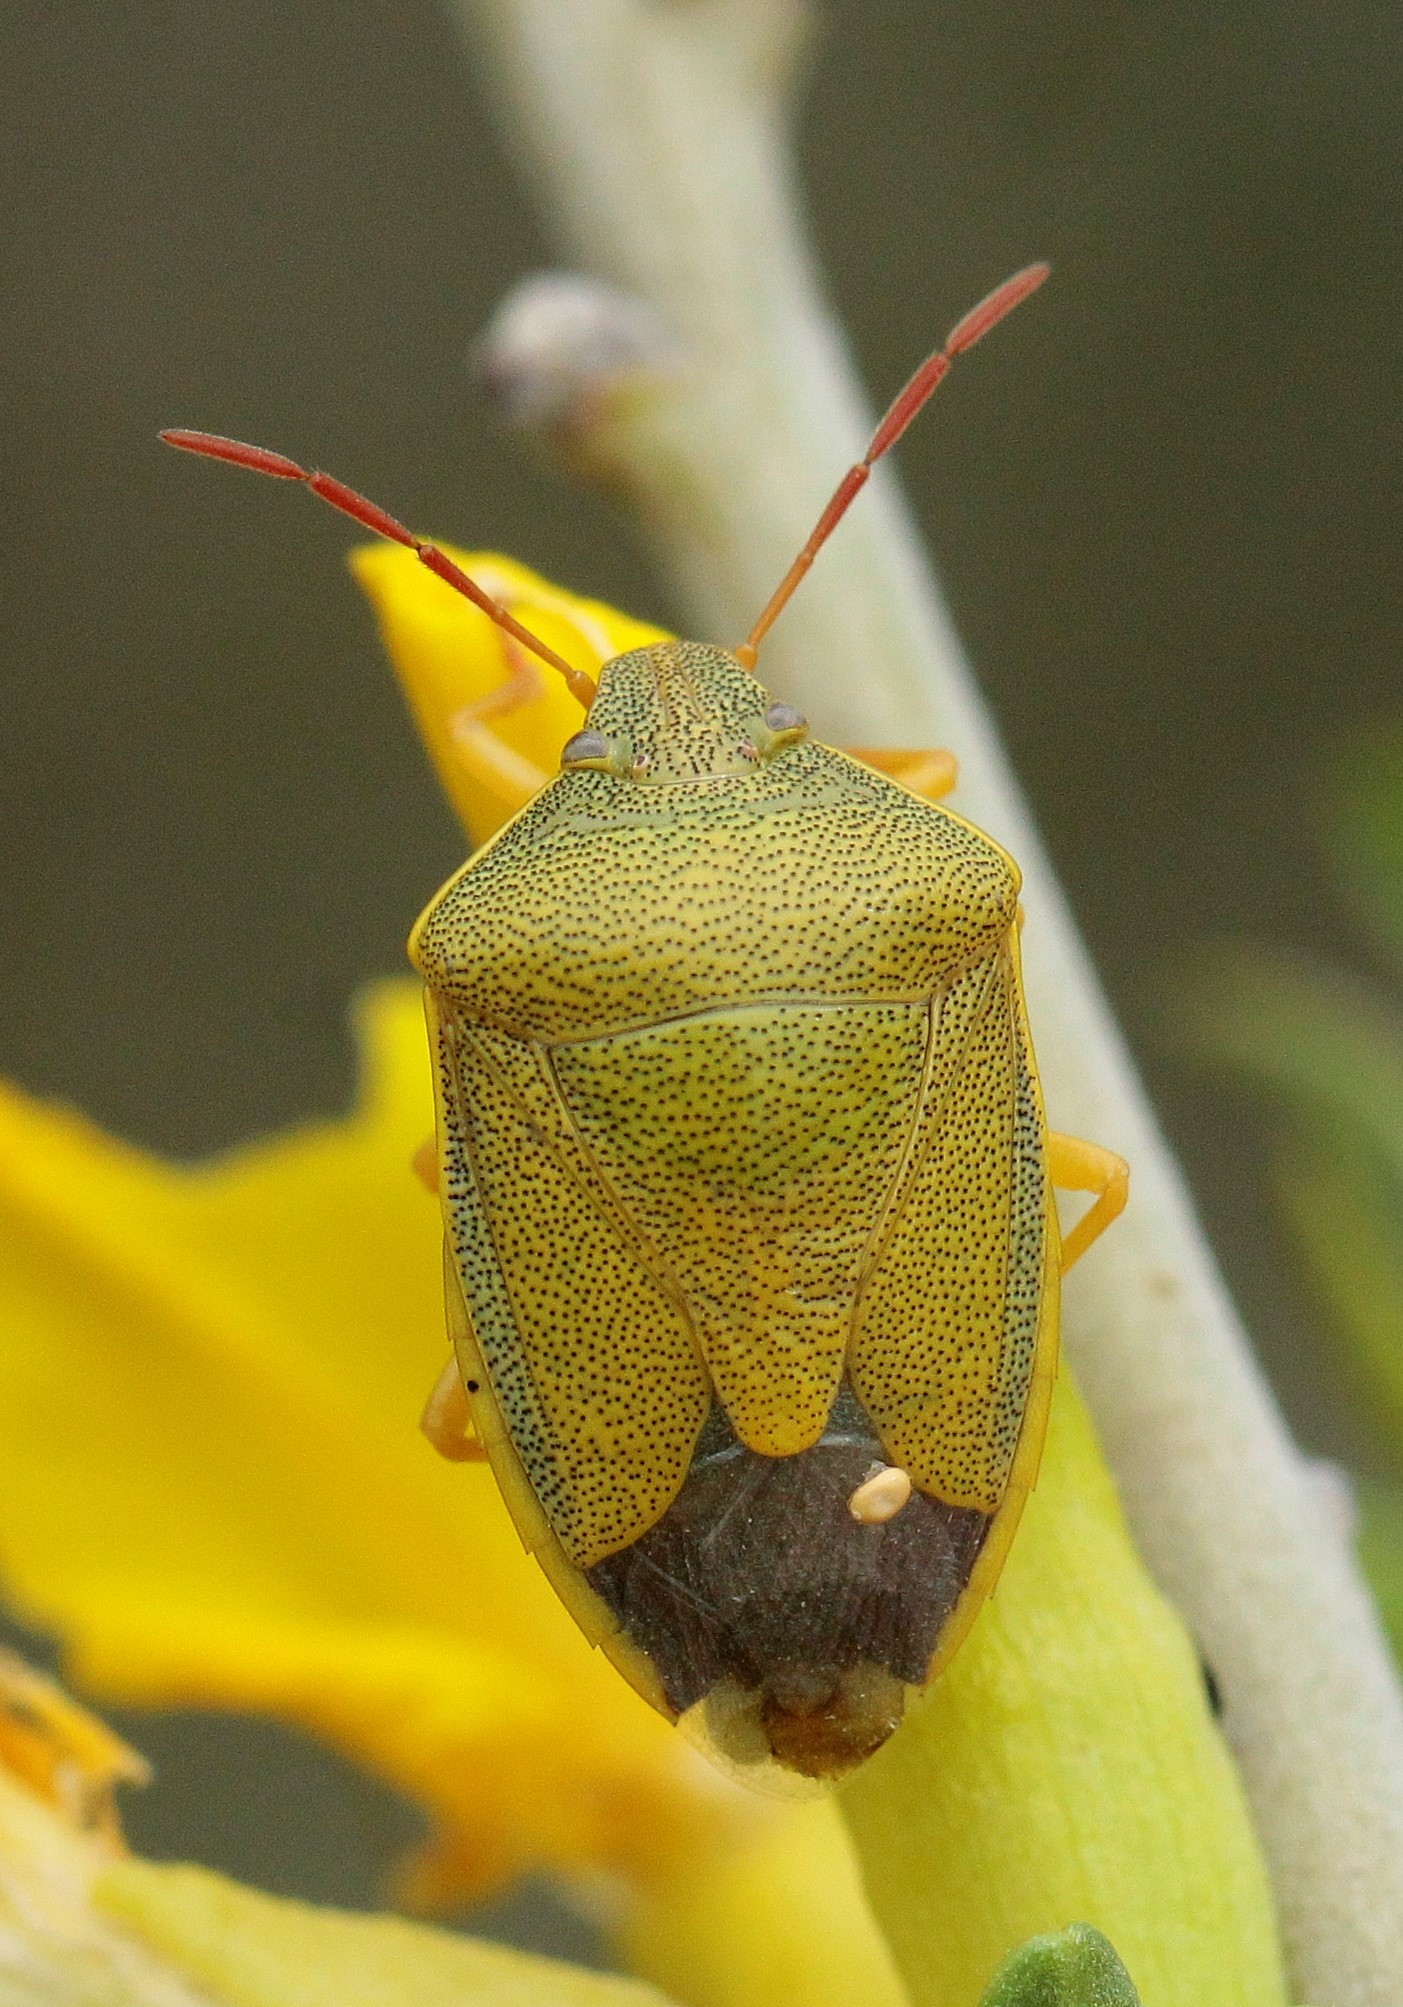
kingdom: Animalia
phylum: Arthropoda
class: Insecta
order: Hemiptera
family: Pentatomidae
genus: Piezodorus
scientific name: Piezodorus lituratus
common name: Stink bug
